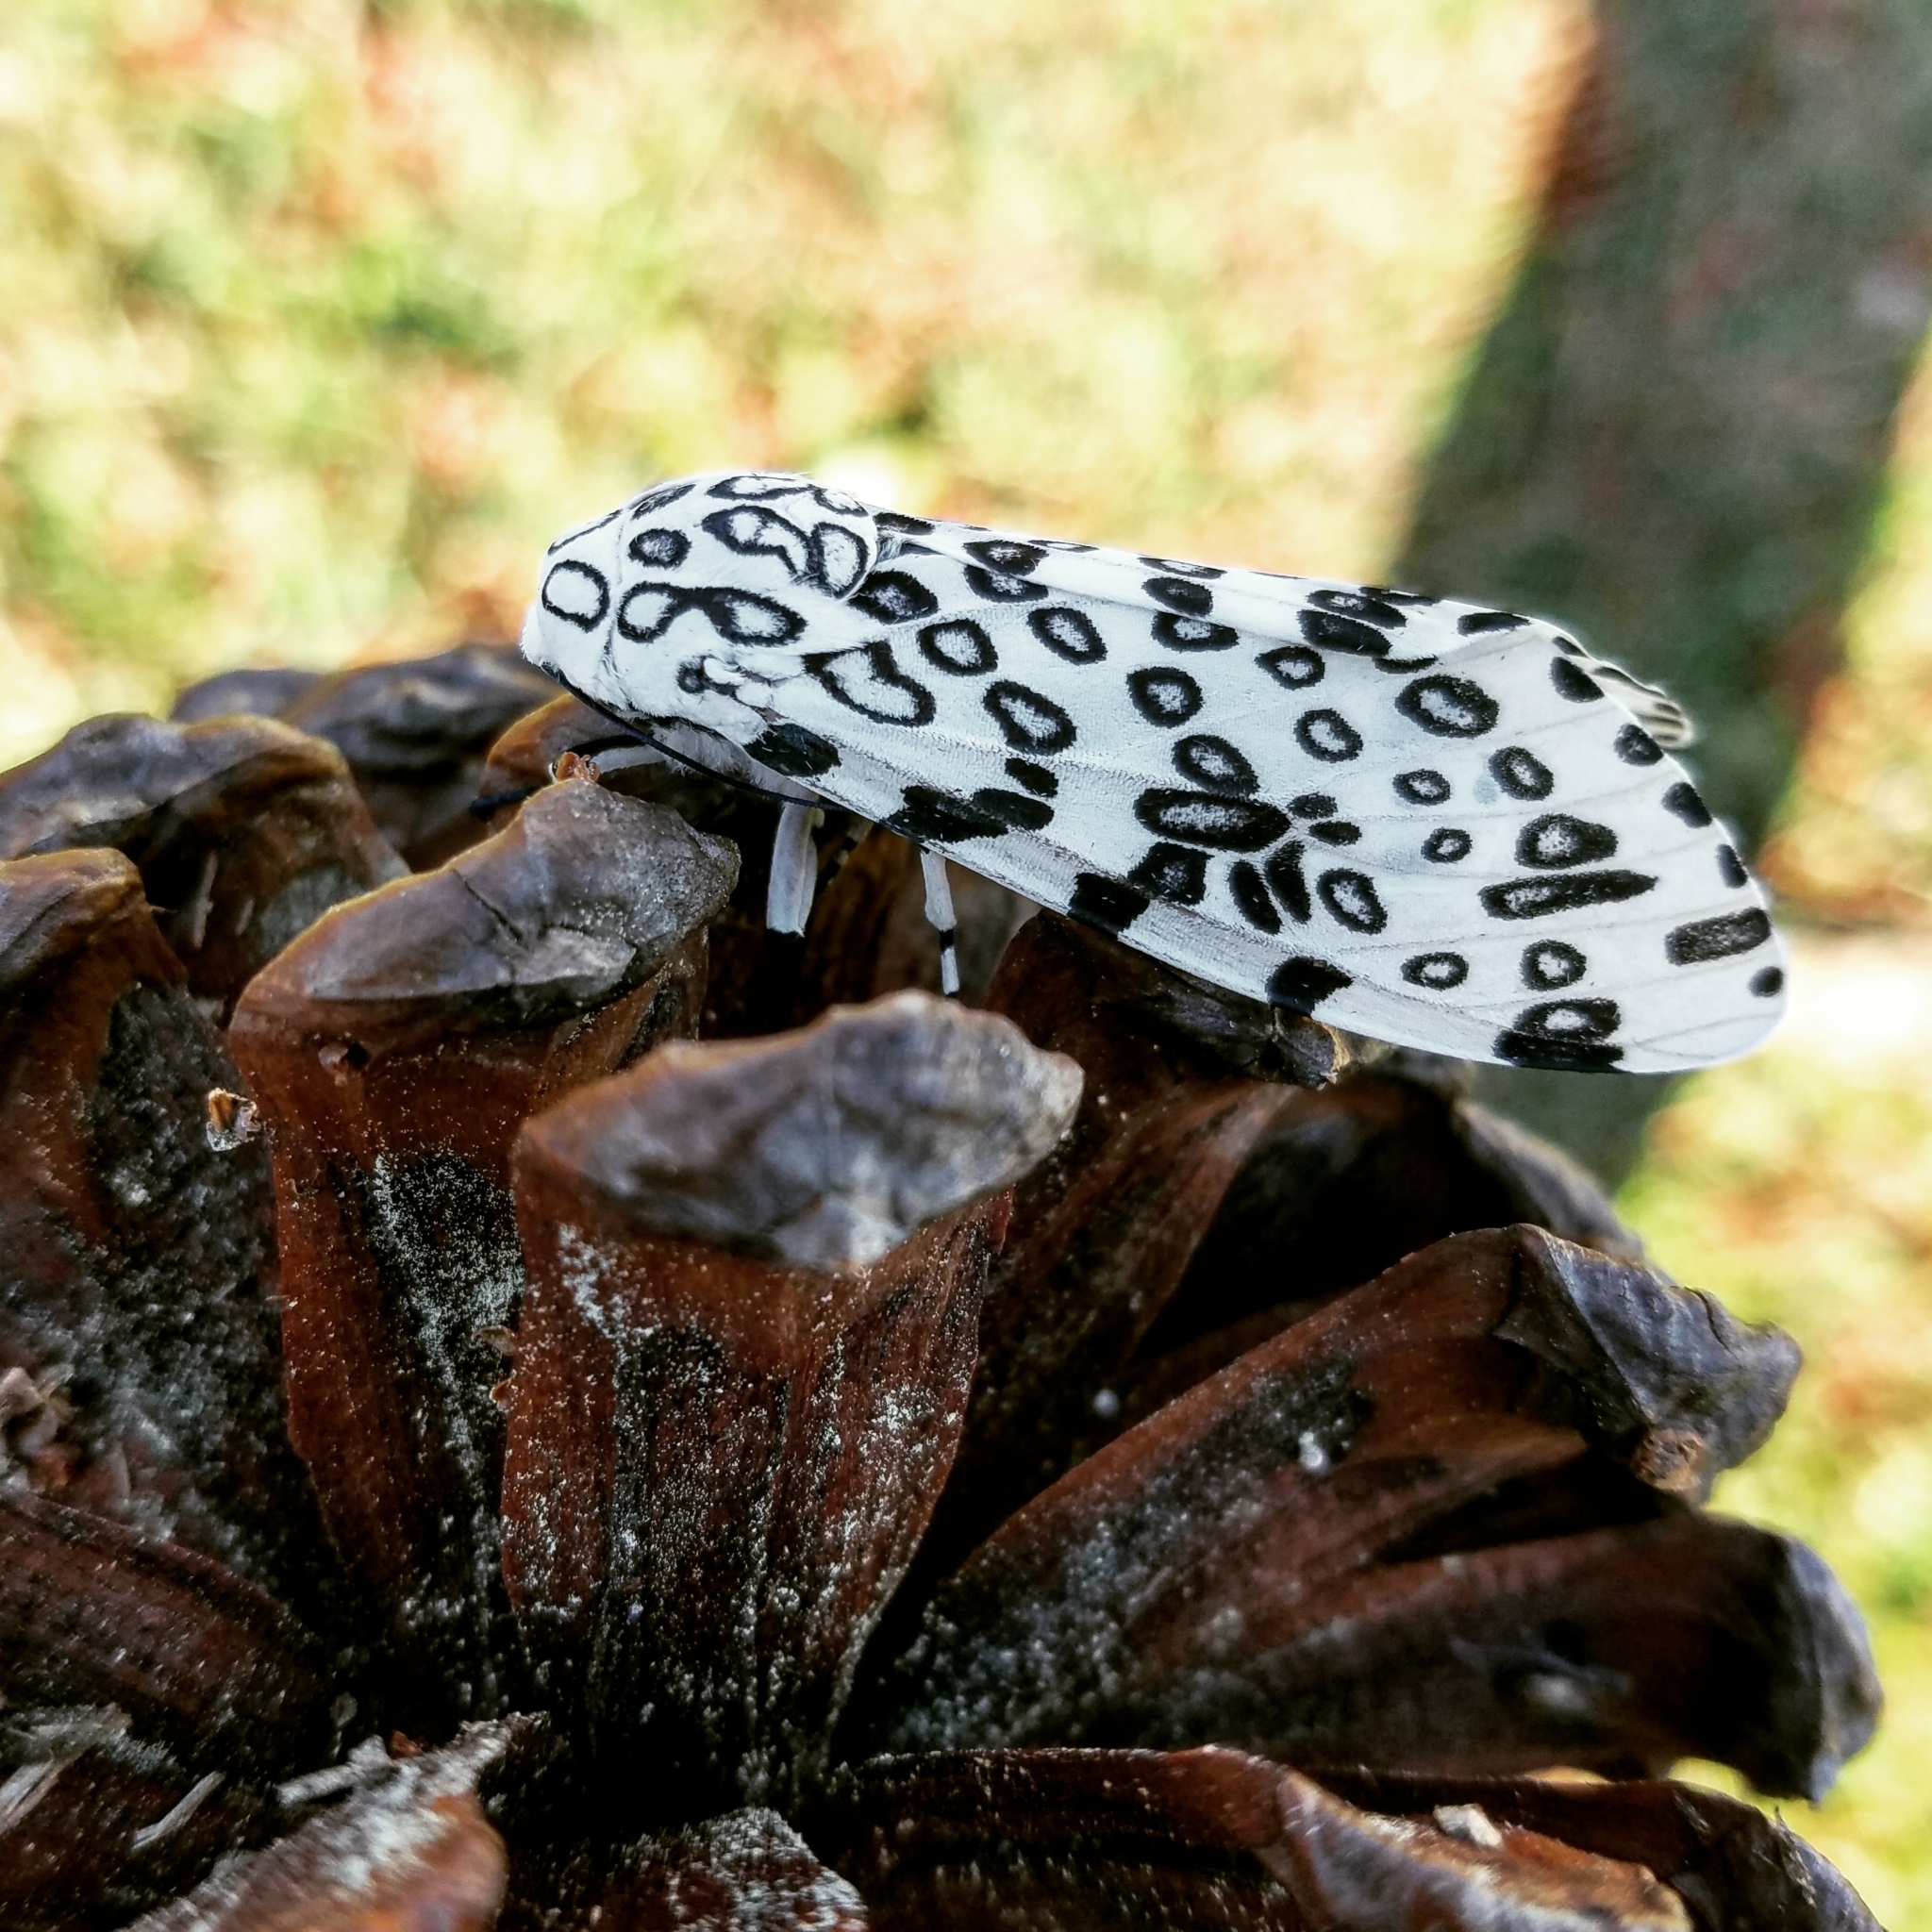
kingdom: Animalia
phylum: Arthropoda
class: Insecta
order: Lepidoptera
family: Erebidae
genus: Hypercompe
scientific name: Hypercompe scribonia
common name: Giant leopard moth
